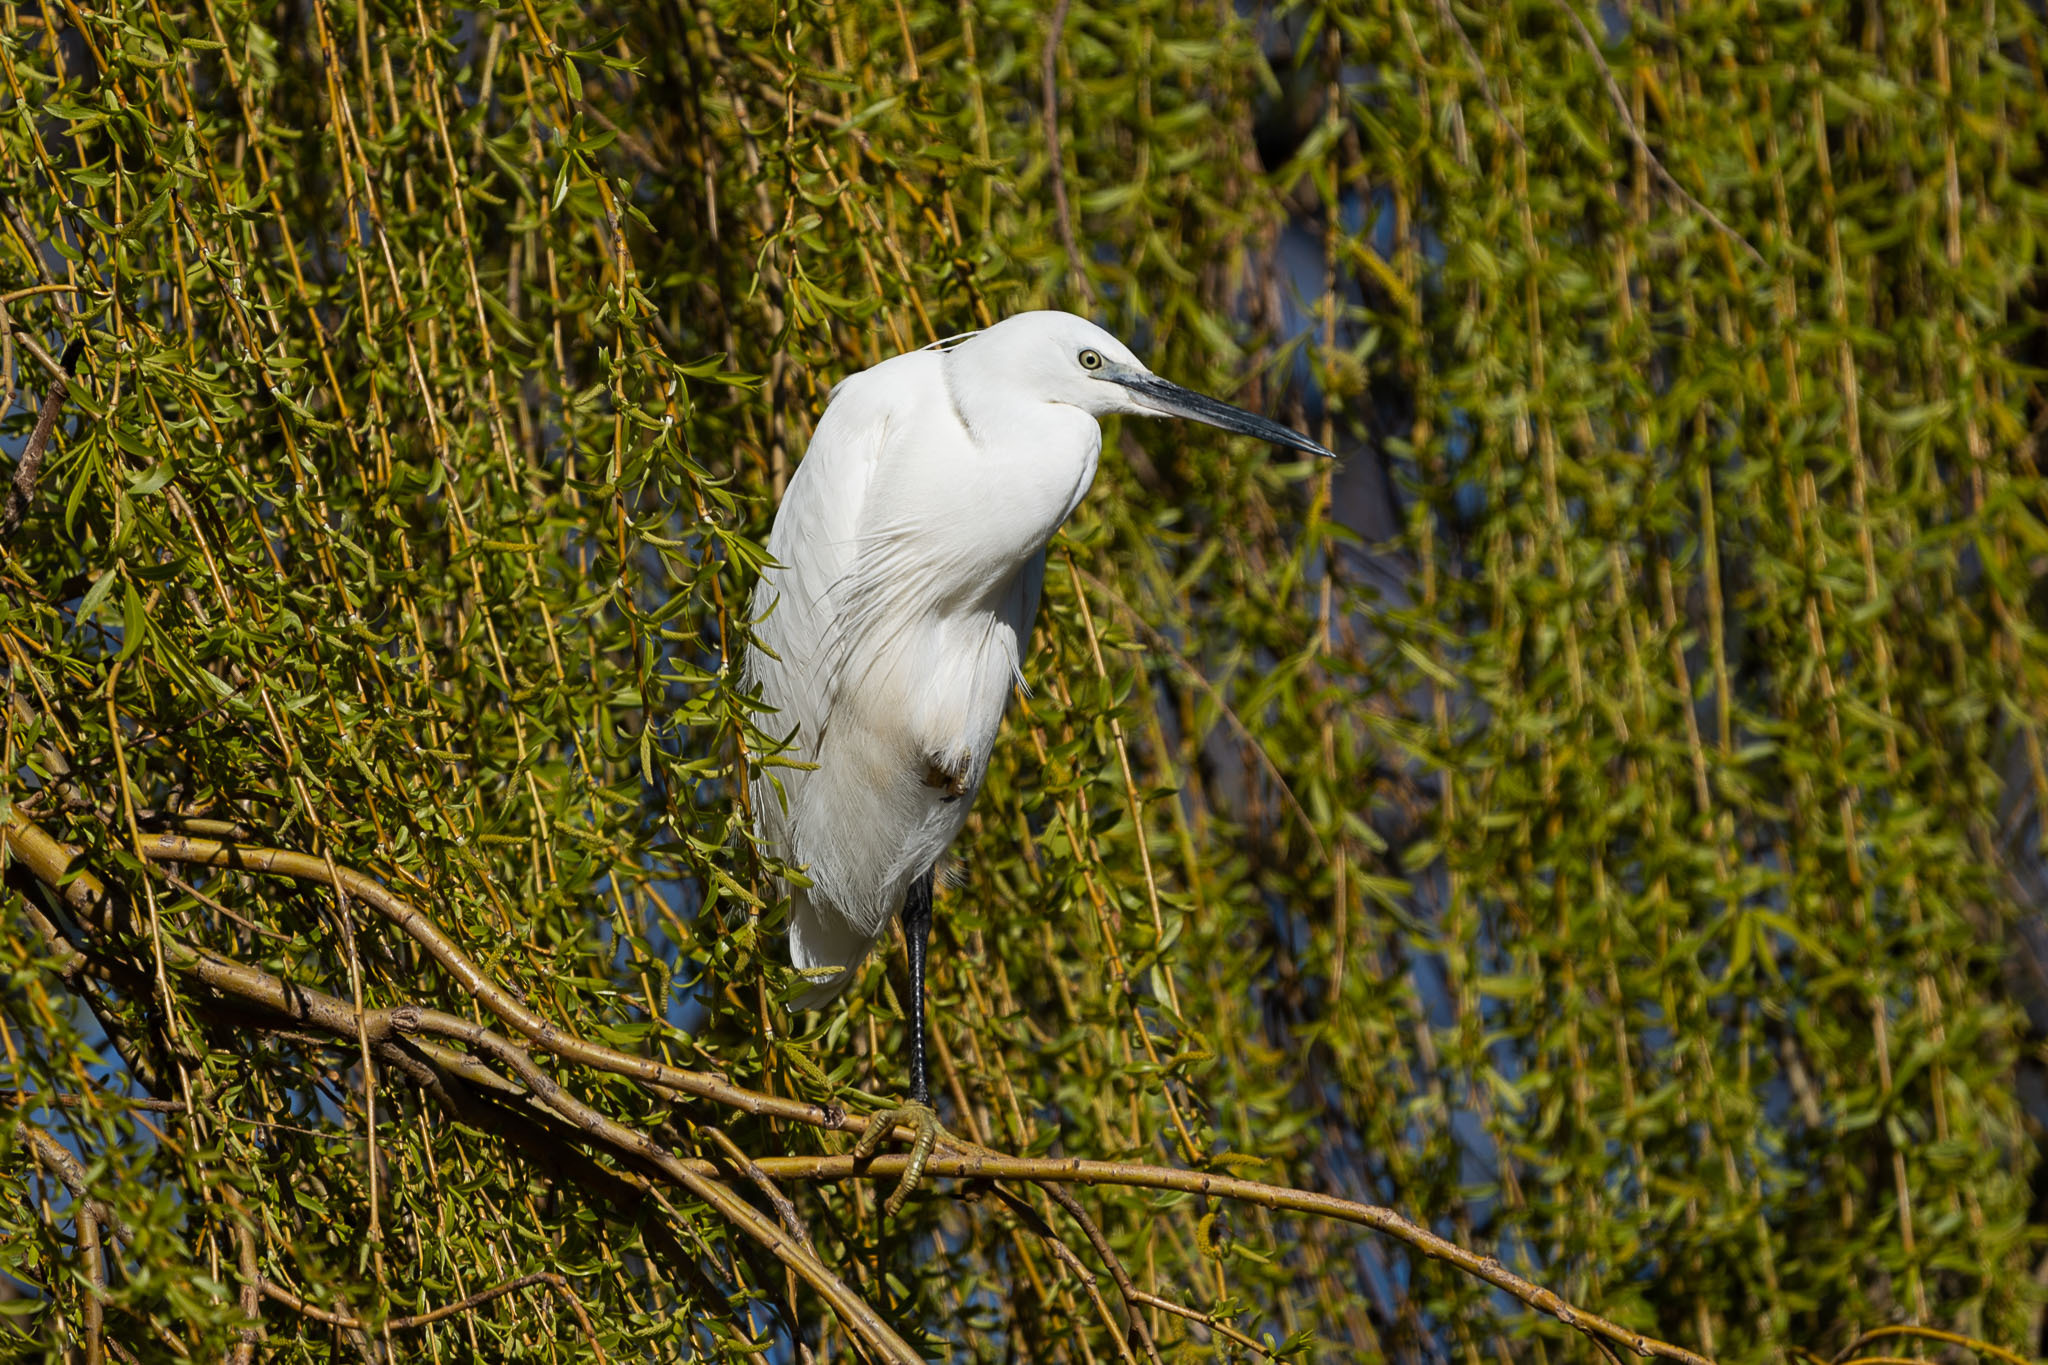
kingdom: Animalia
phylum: Chordata
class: Aves
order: Pelecaniformes
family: Ardeidae
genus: Egretta
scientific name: Egretta garzetta
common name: Little egret
